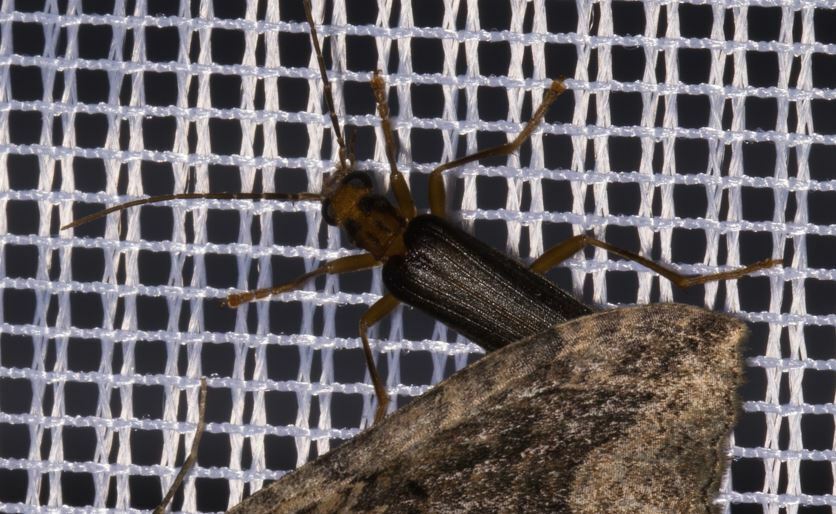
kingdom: Animalia
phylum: Arthropoda
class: Insecta
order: Coleoptera
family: Oedemeridae
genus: Nacerdes
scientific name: Nacerdes carniolica
